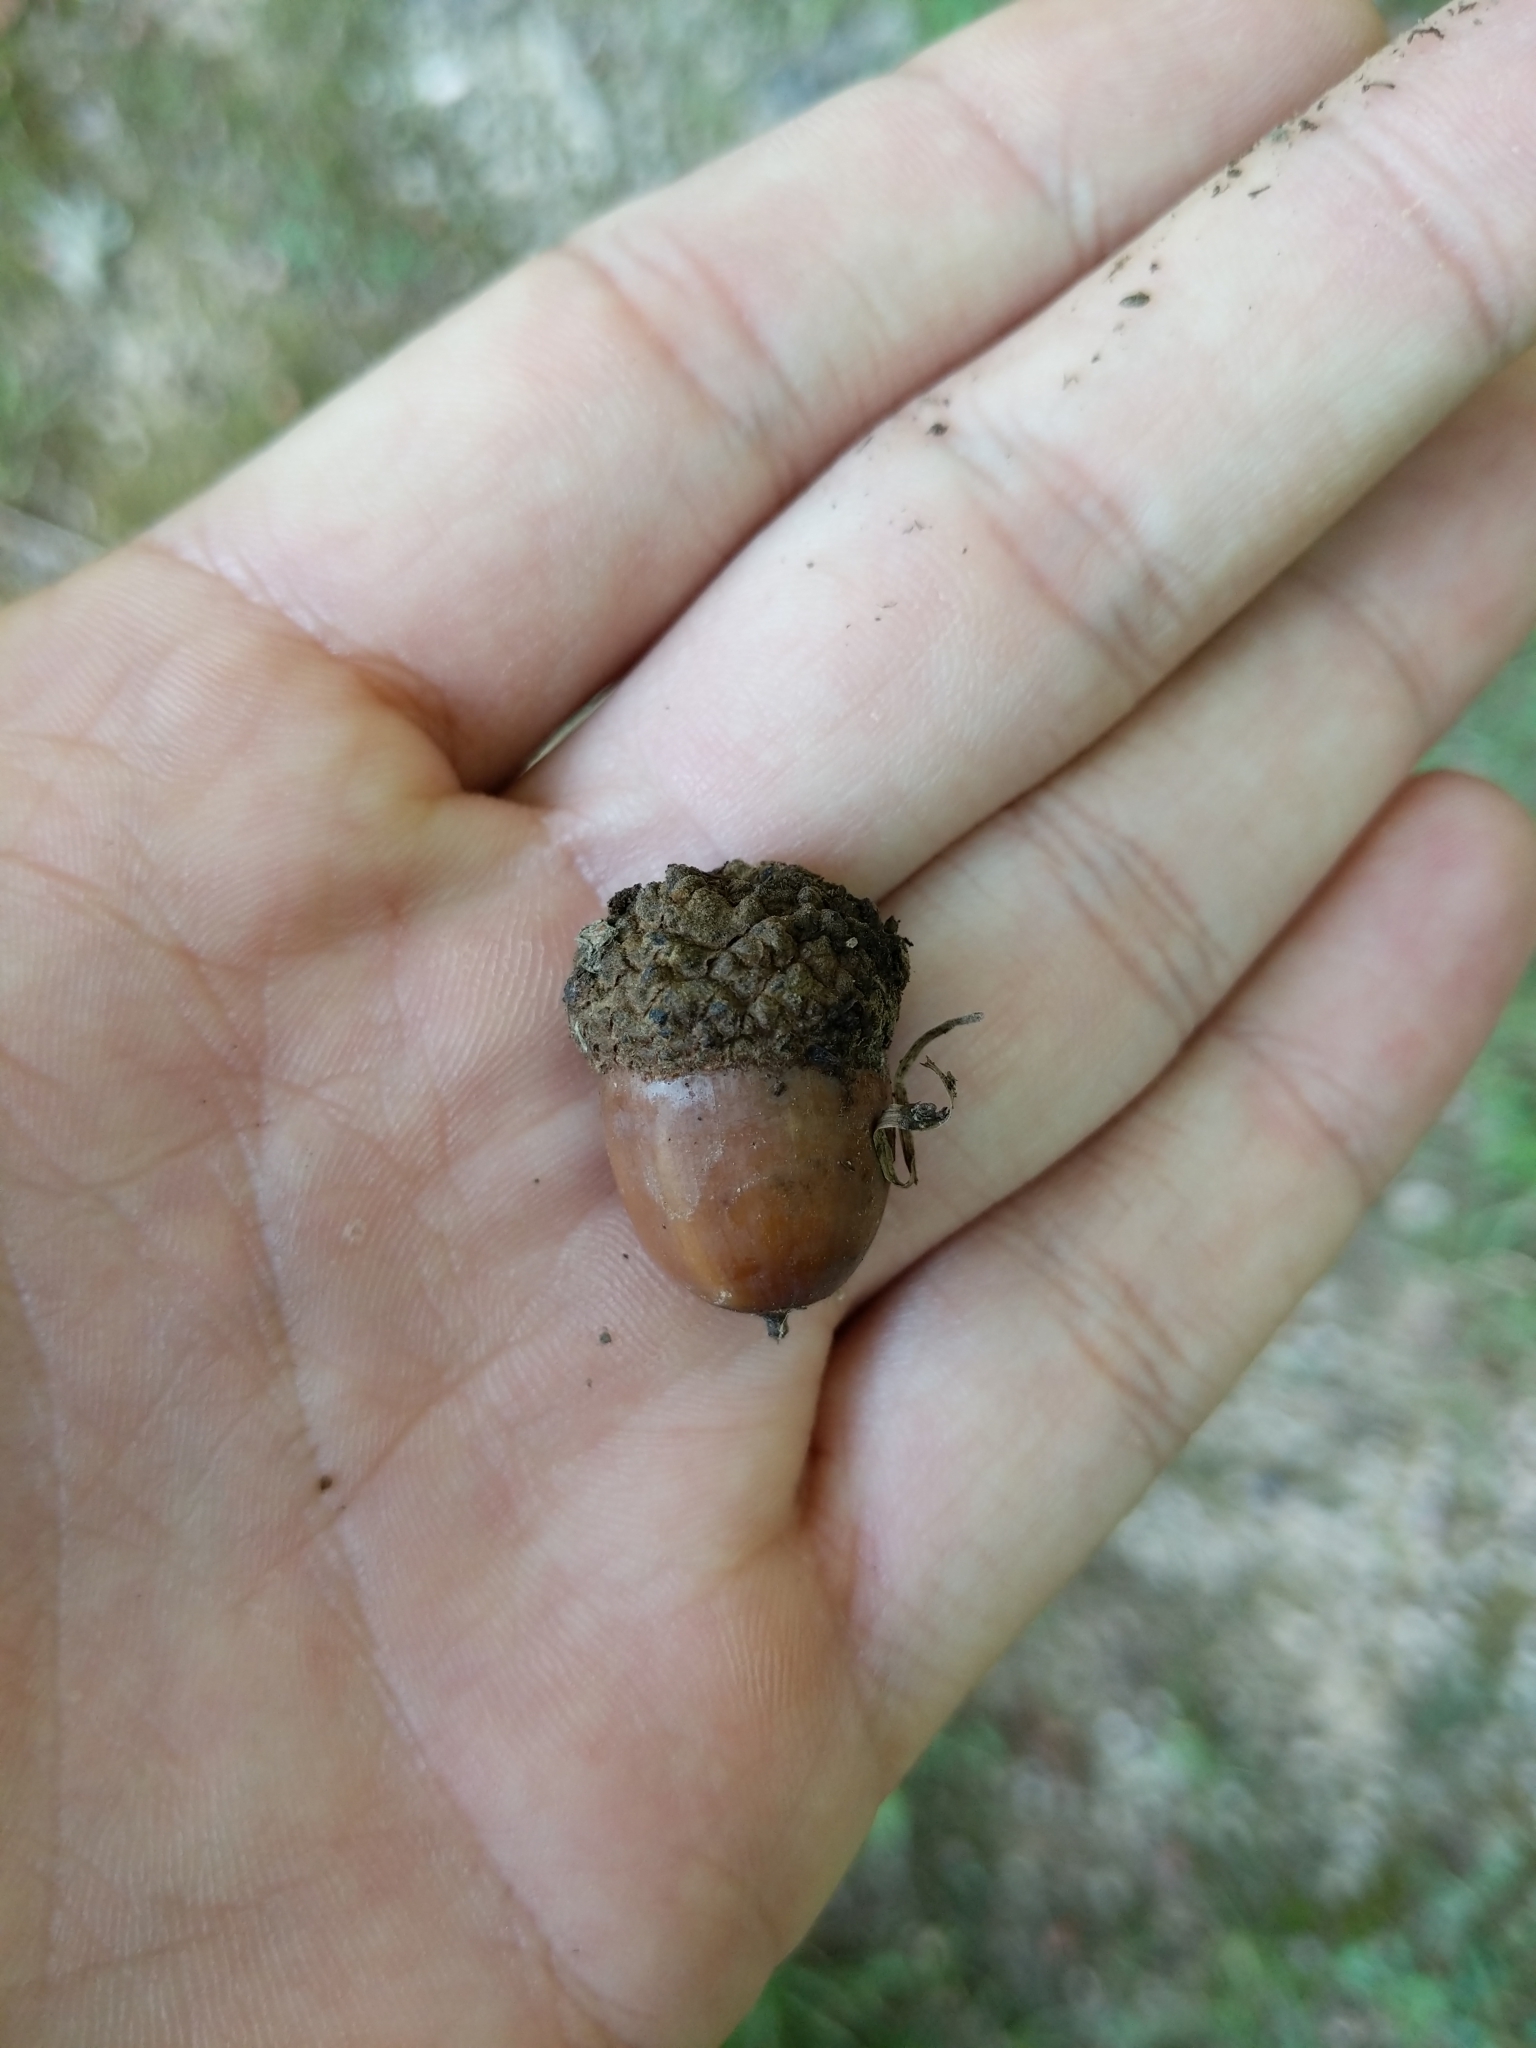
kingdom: Plantae
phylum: Tracheophyta
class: Magnoliopsida
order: Fagales
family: Fagaceae
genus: Quercus
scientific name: Quercus alba
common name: White oak
